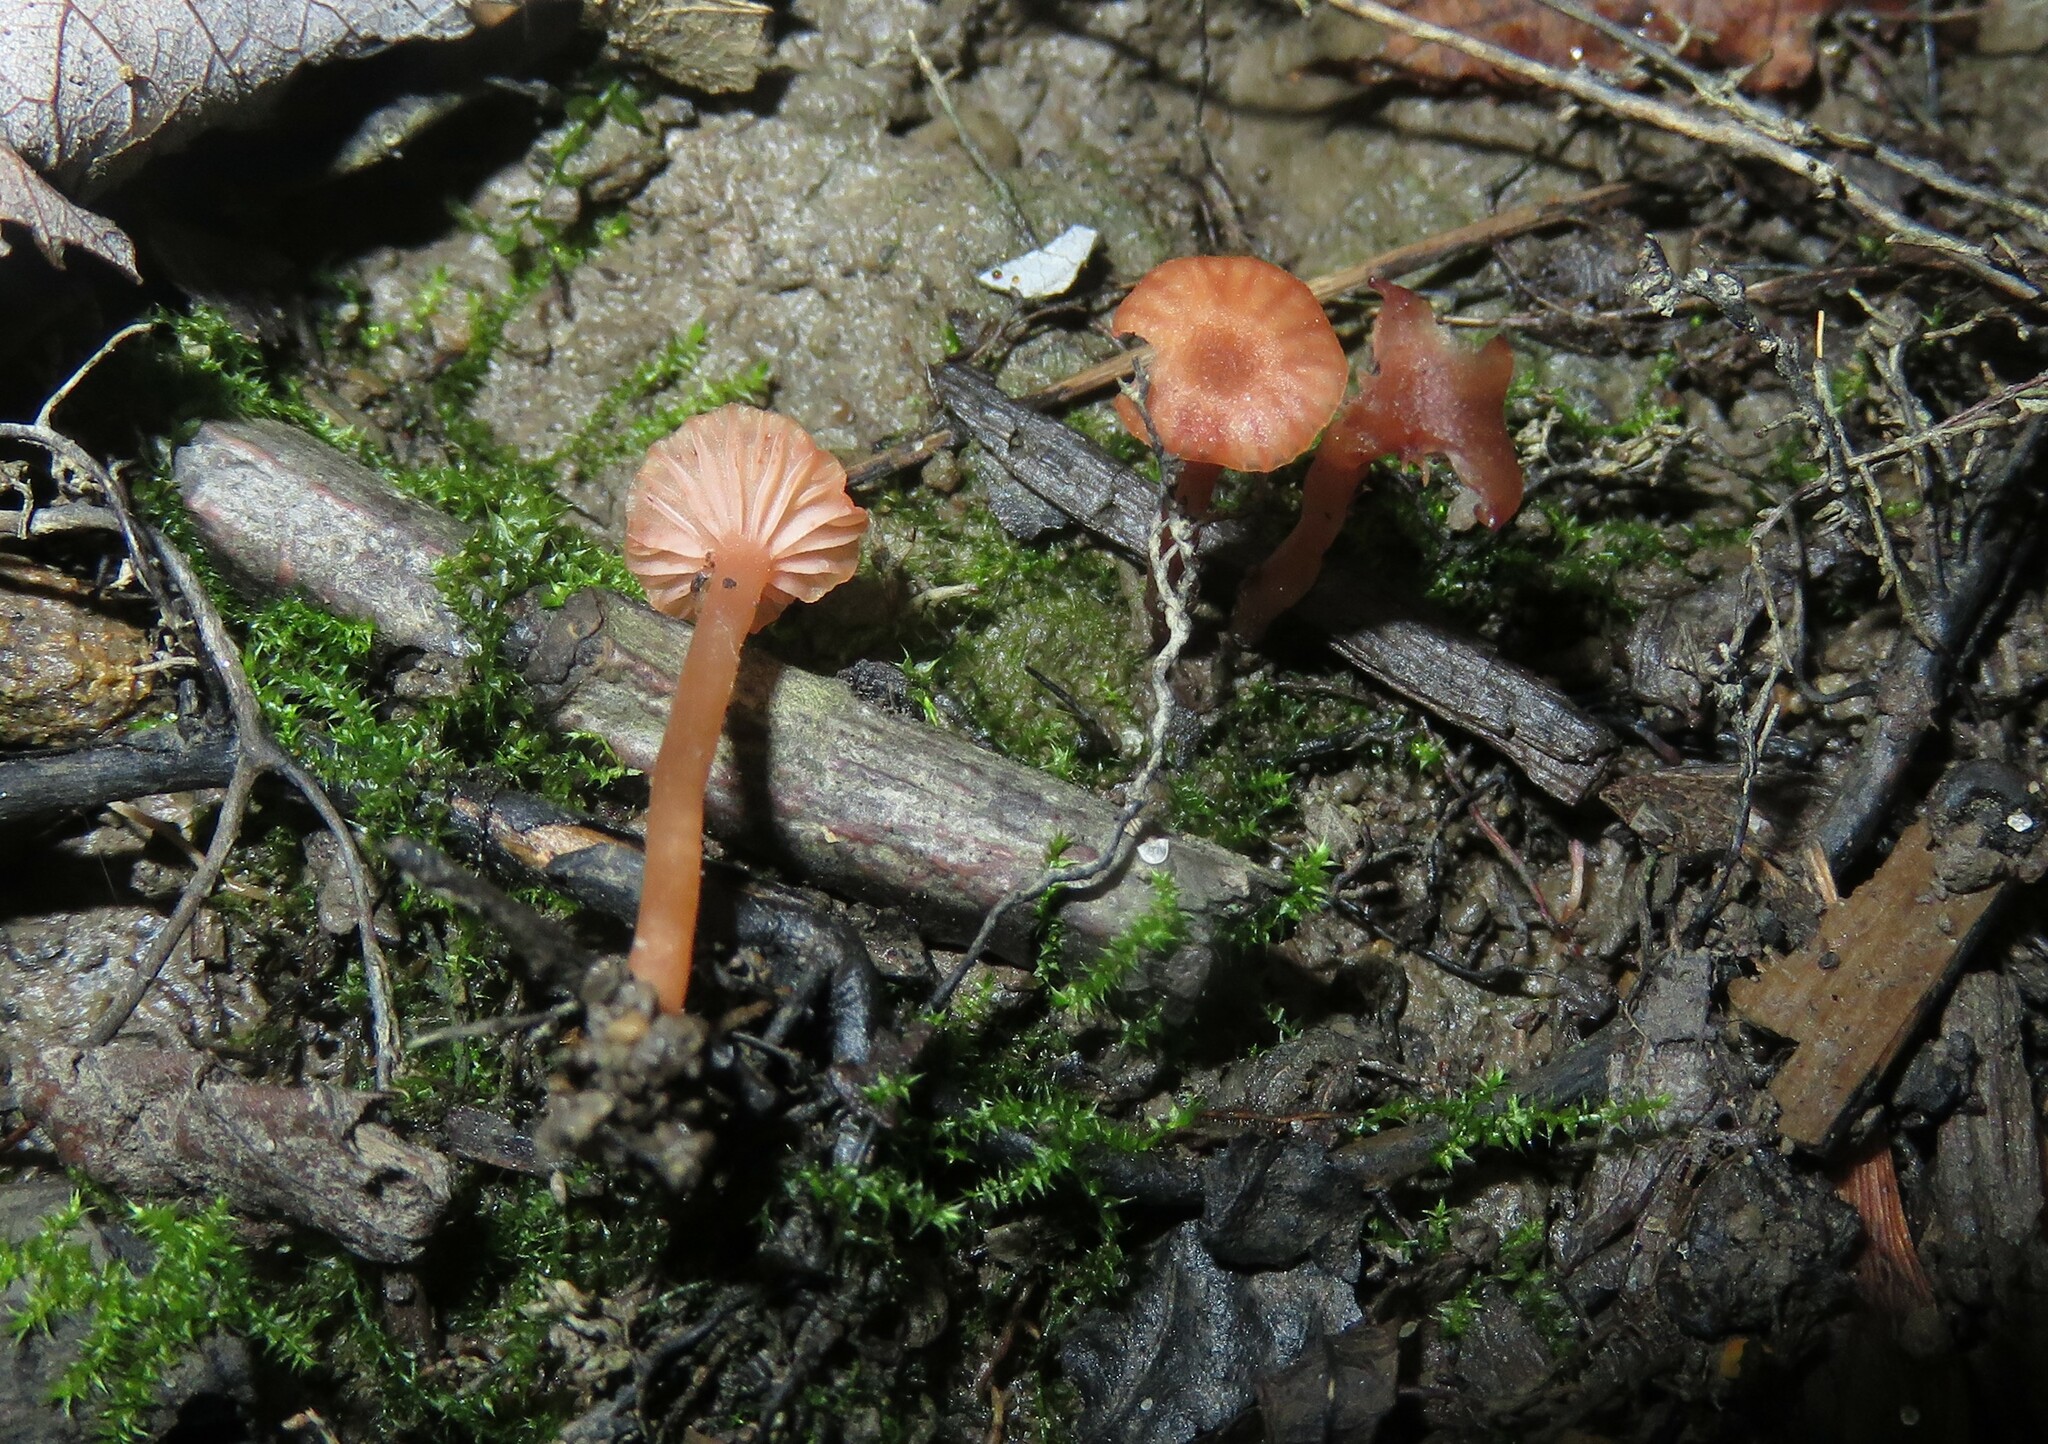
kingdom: Fungi
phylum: Basidiomycota
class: Agaricomycetes
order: Agaricales
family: Hydnangiaceae
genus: Laccaria
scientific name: Laccaria laccata
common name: Deceiver
